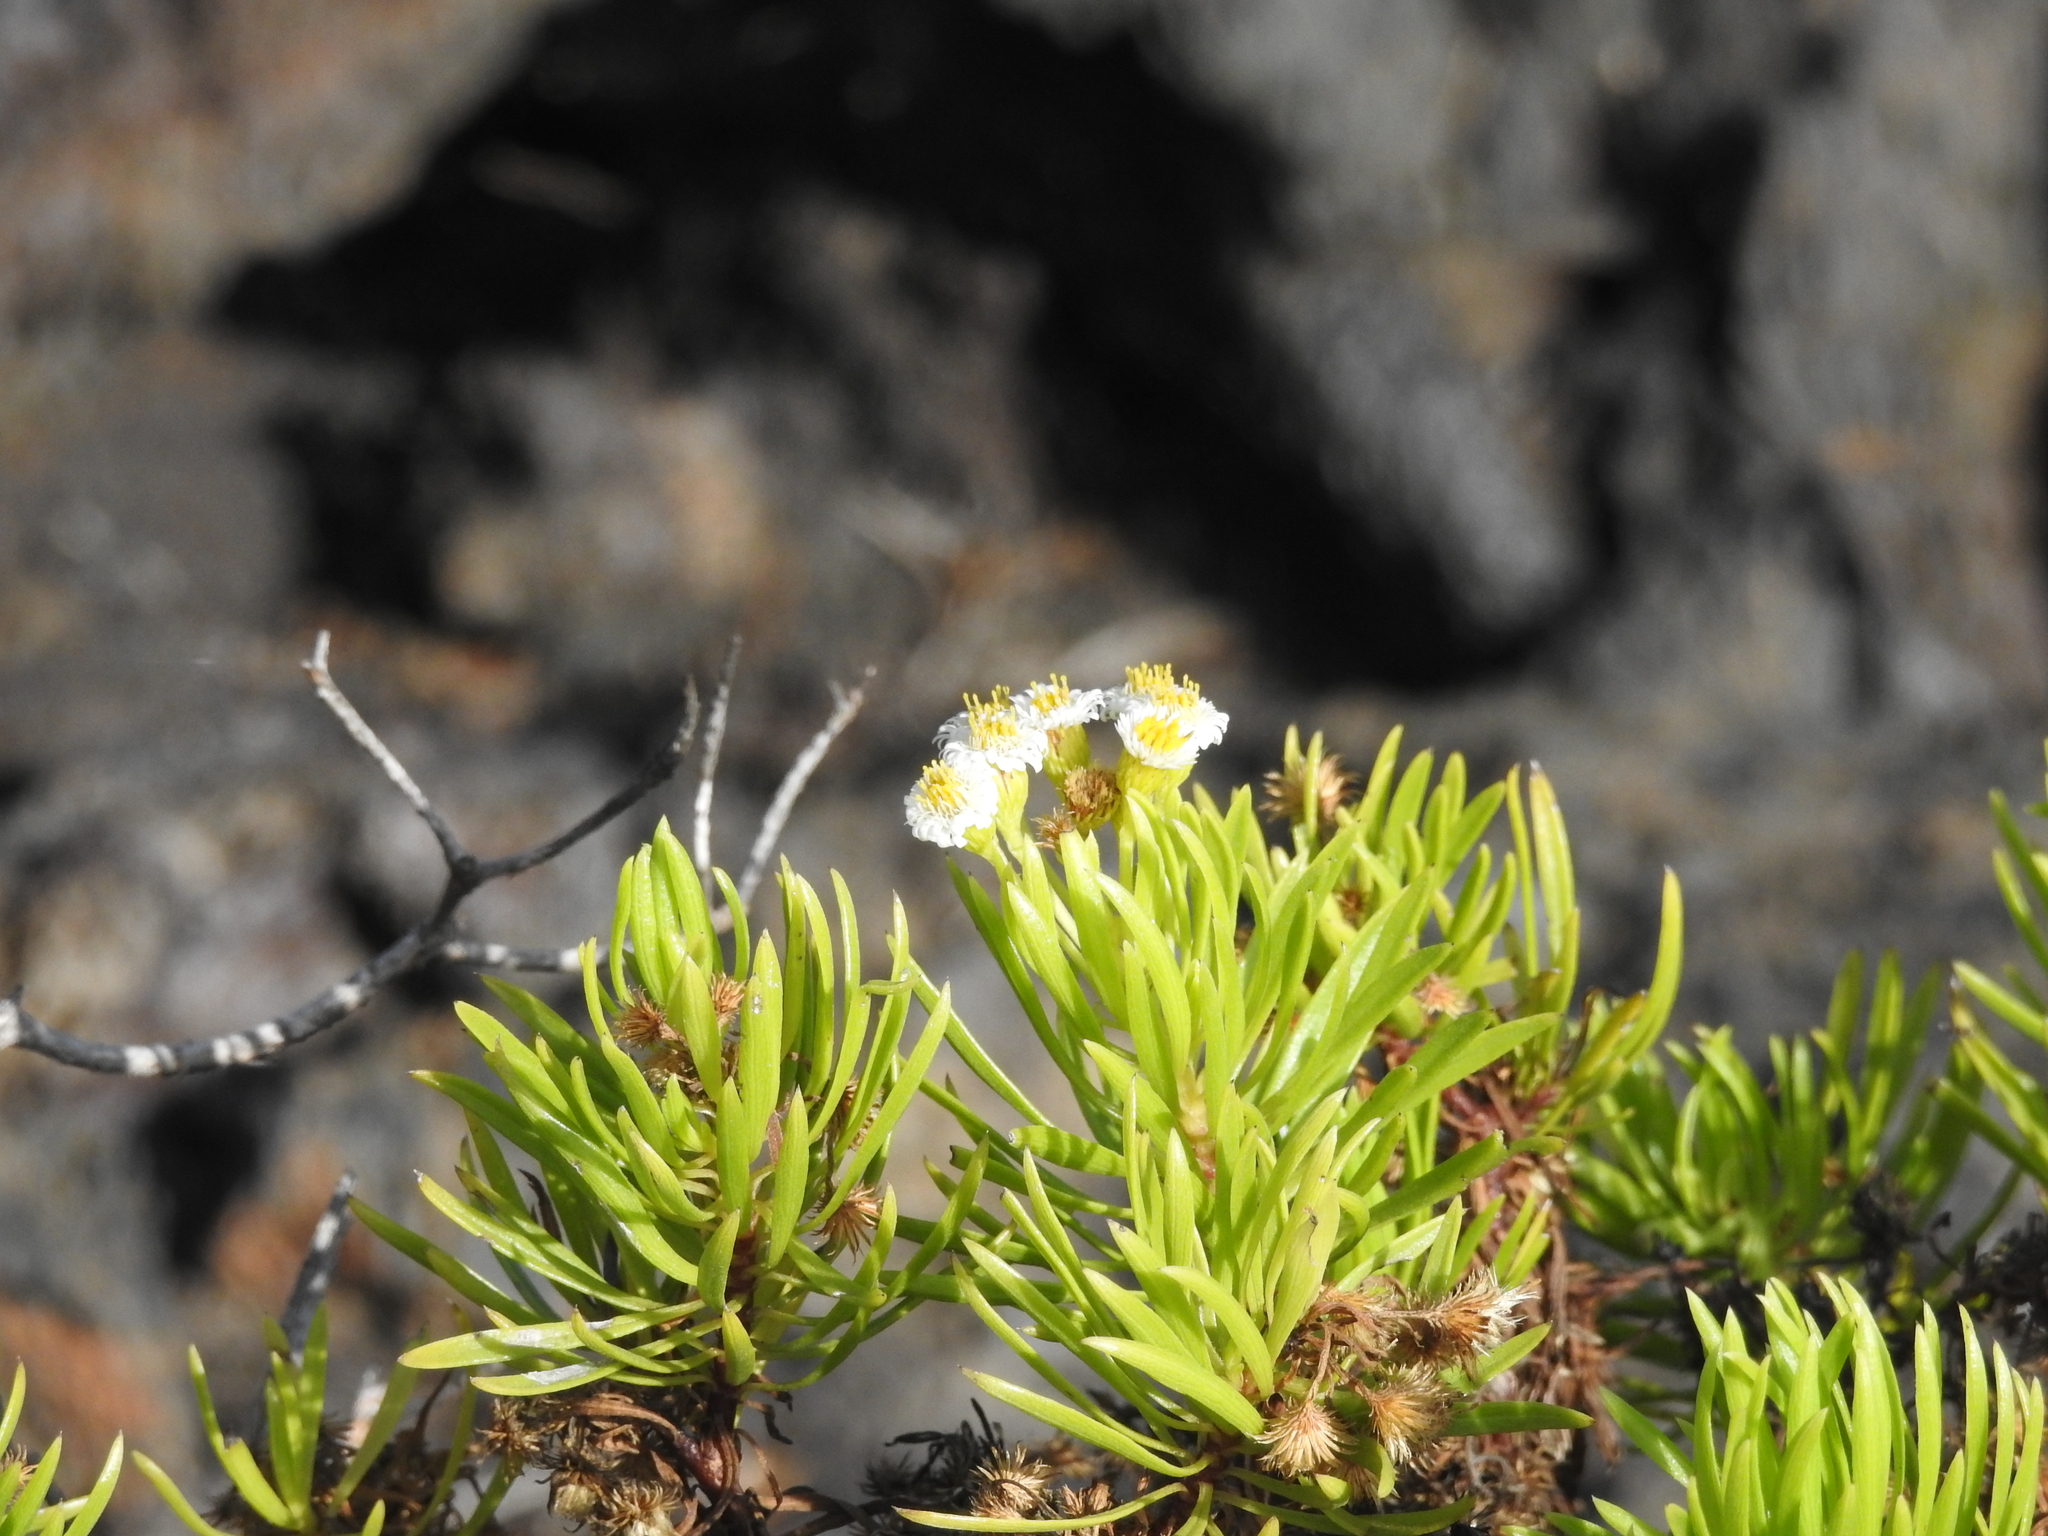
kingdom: Plantae
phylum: Tracheophyta
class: Magnoliopsida
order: Asterales
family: Asteraceae
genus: Erigeron
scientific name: Erigeron tenuifolius
